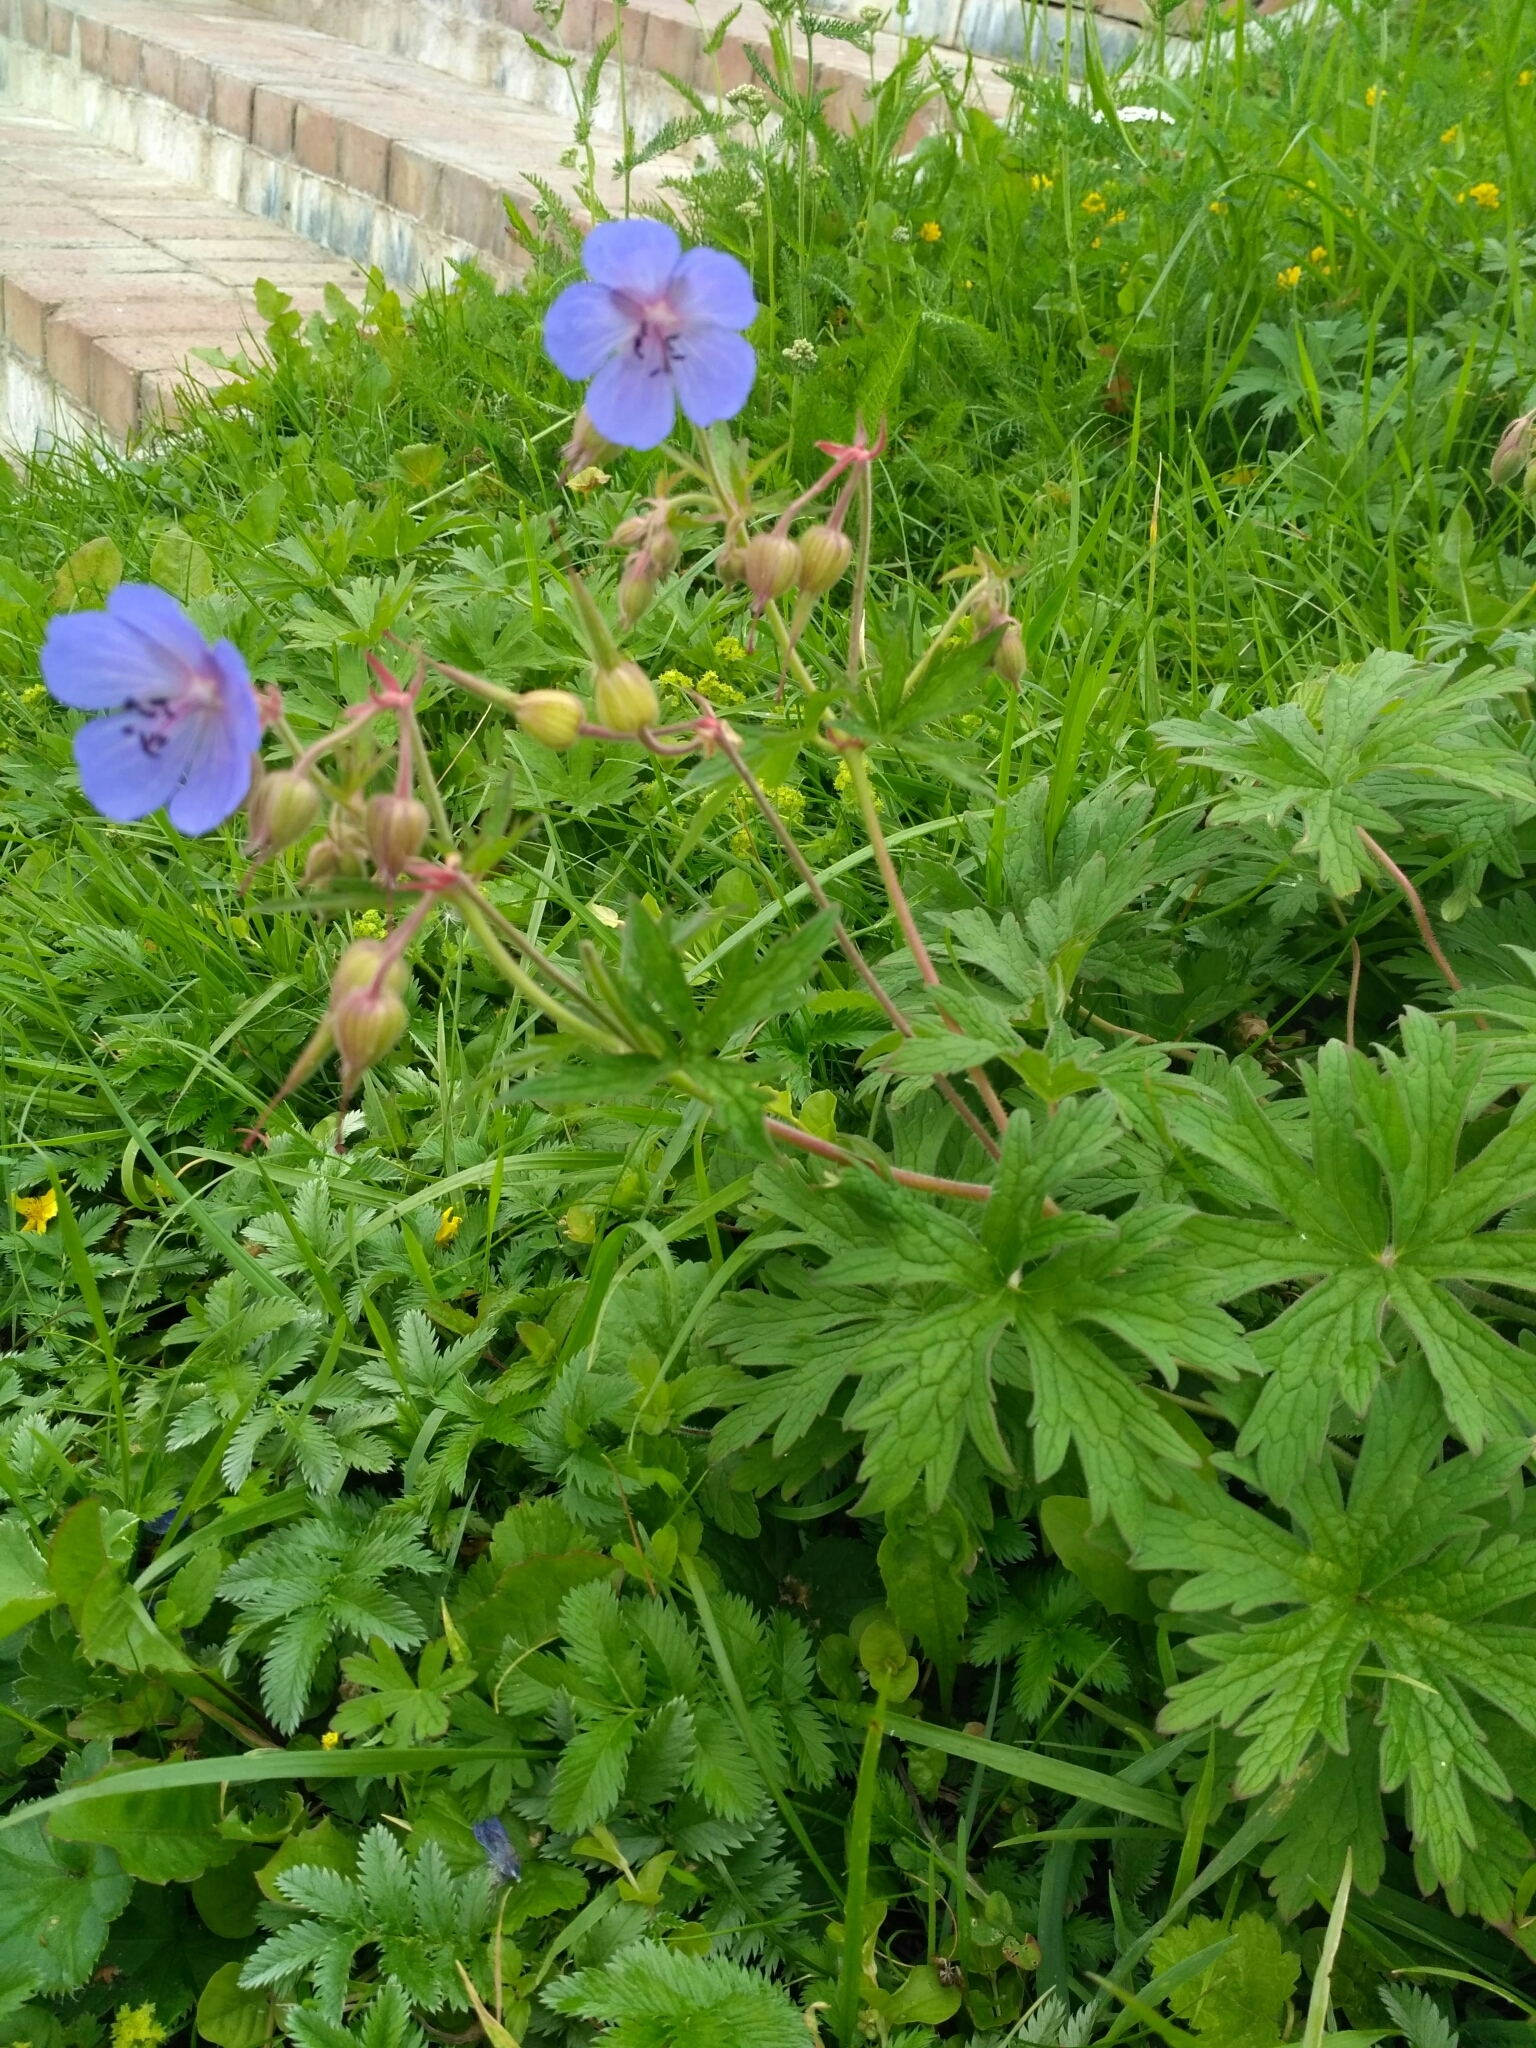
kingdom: Plantae
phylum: Tracheophyta
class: Magnoliopsida
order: Geraniales
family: Geraniaceae
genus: Geranium
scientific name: Geranium pratense
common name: Meadow crane's-bill
